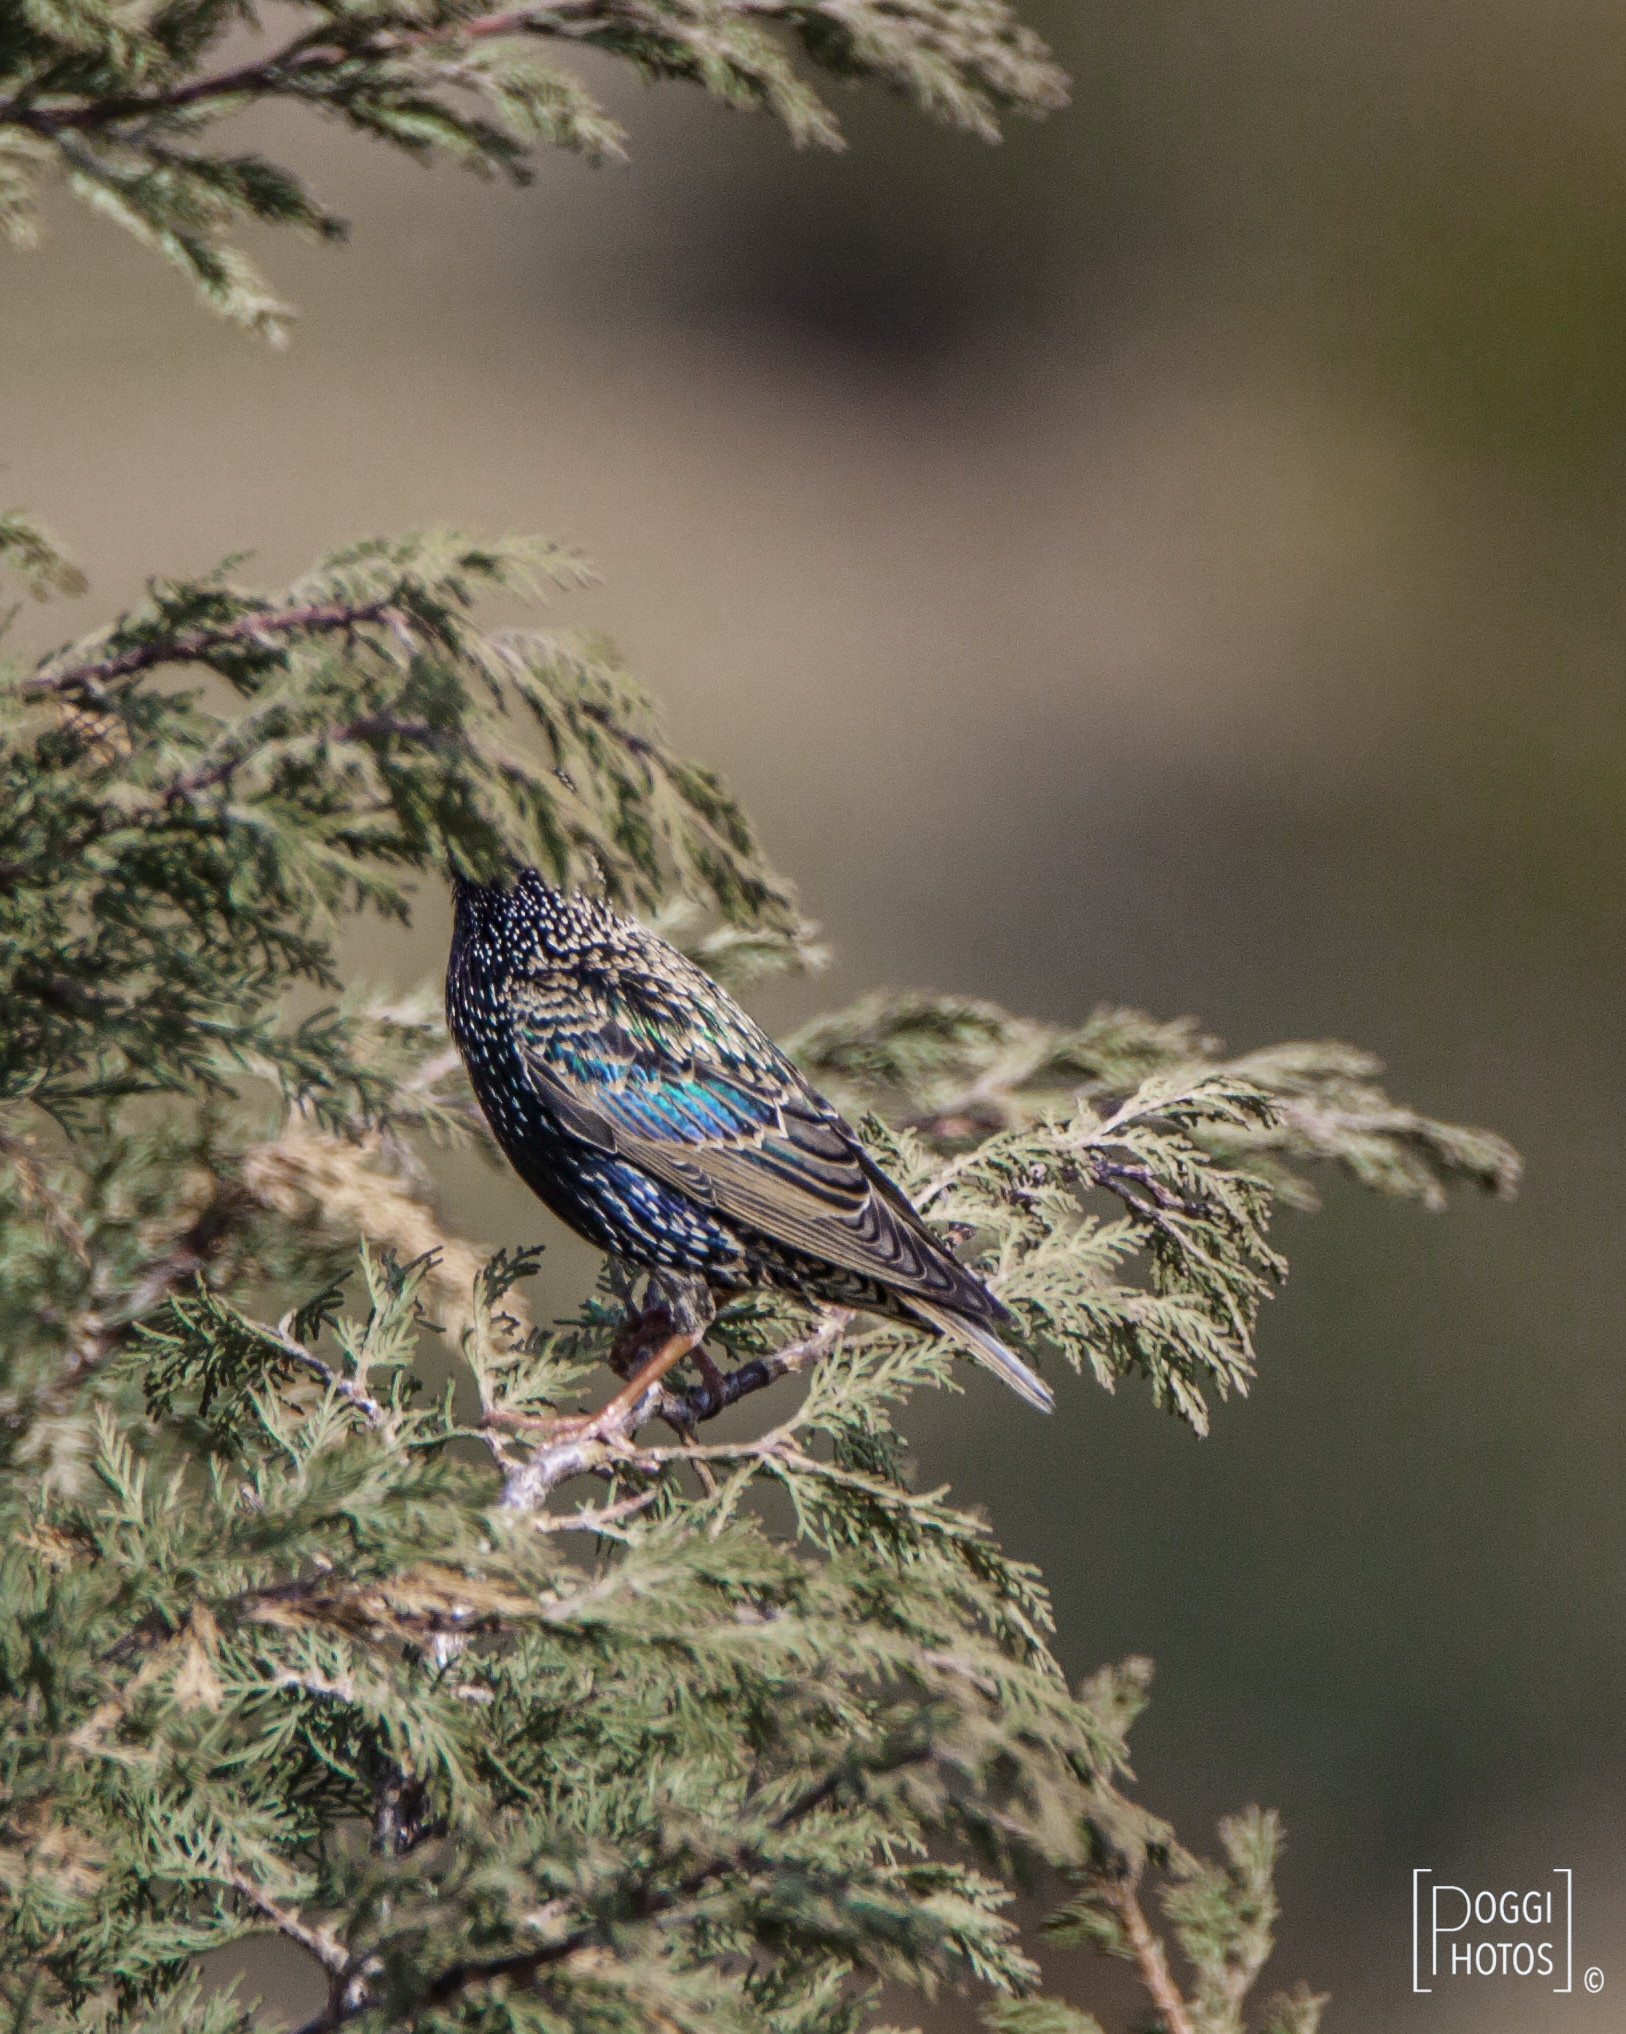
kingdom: Animalia
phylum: Chordata
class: Aves
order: Passeriformes
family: Sturnidae
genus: Sturnus
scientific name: Sturnus vulgaris
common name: Common starling
